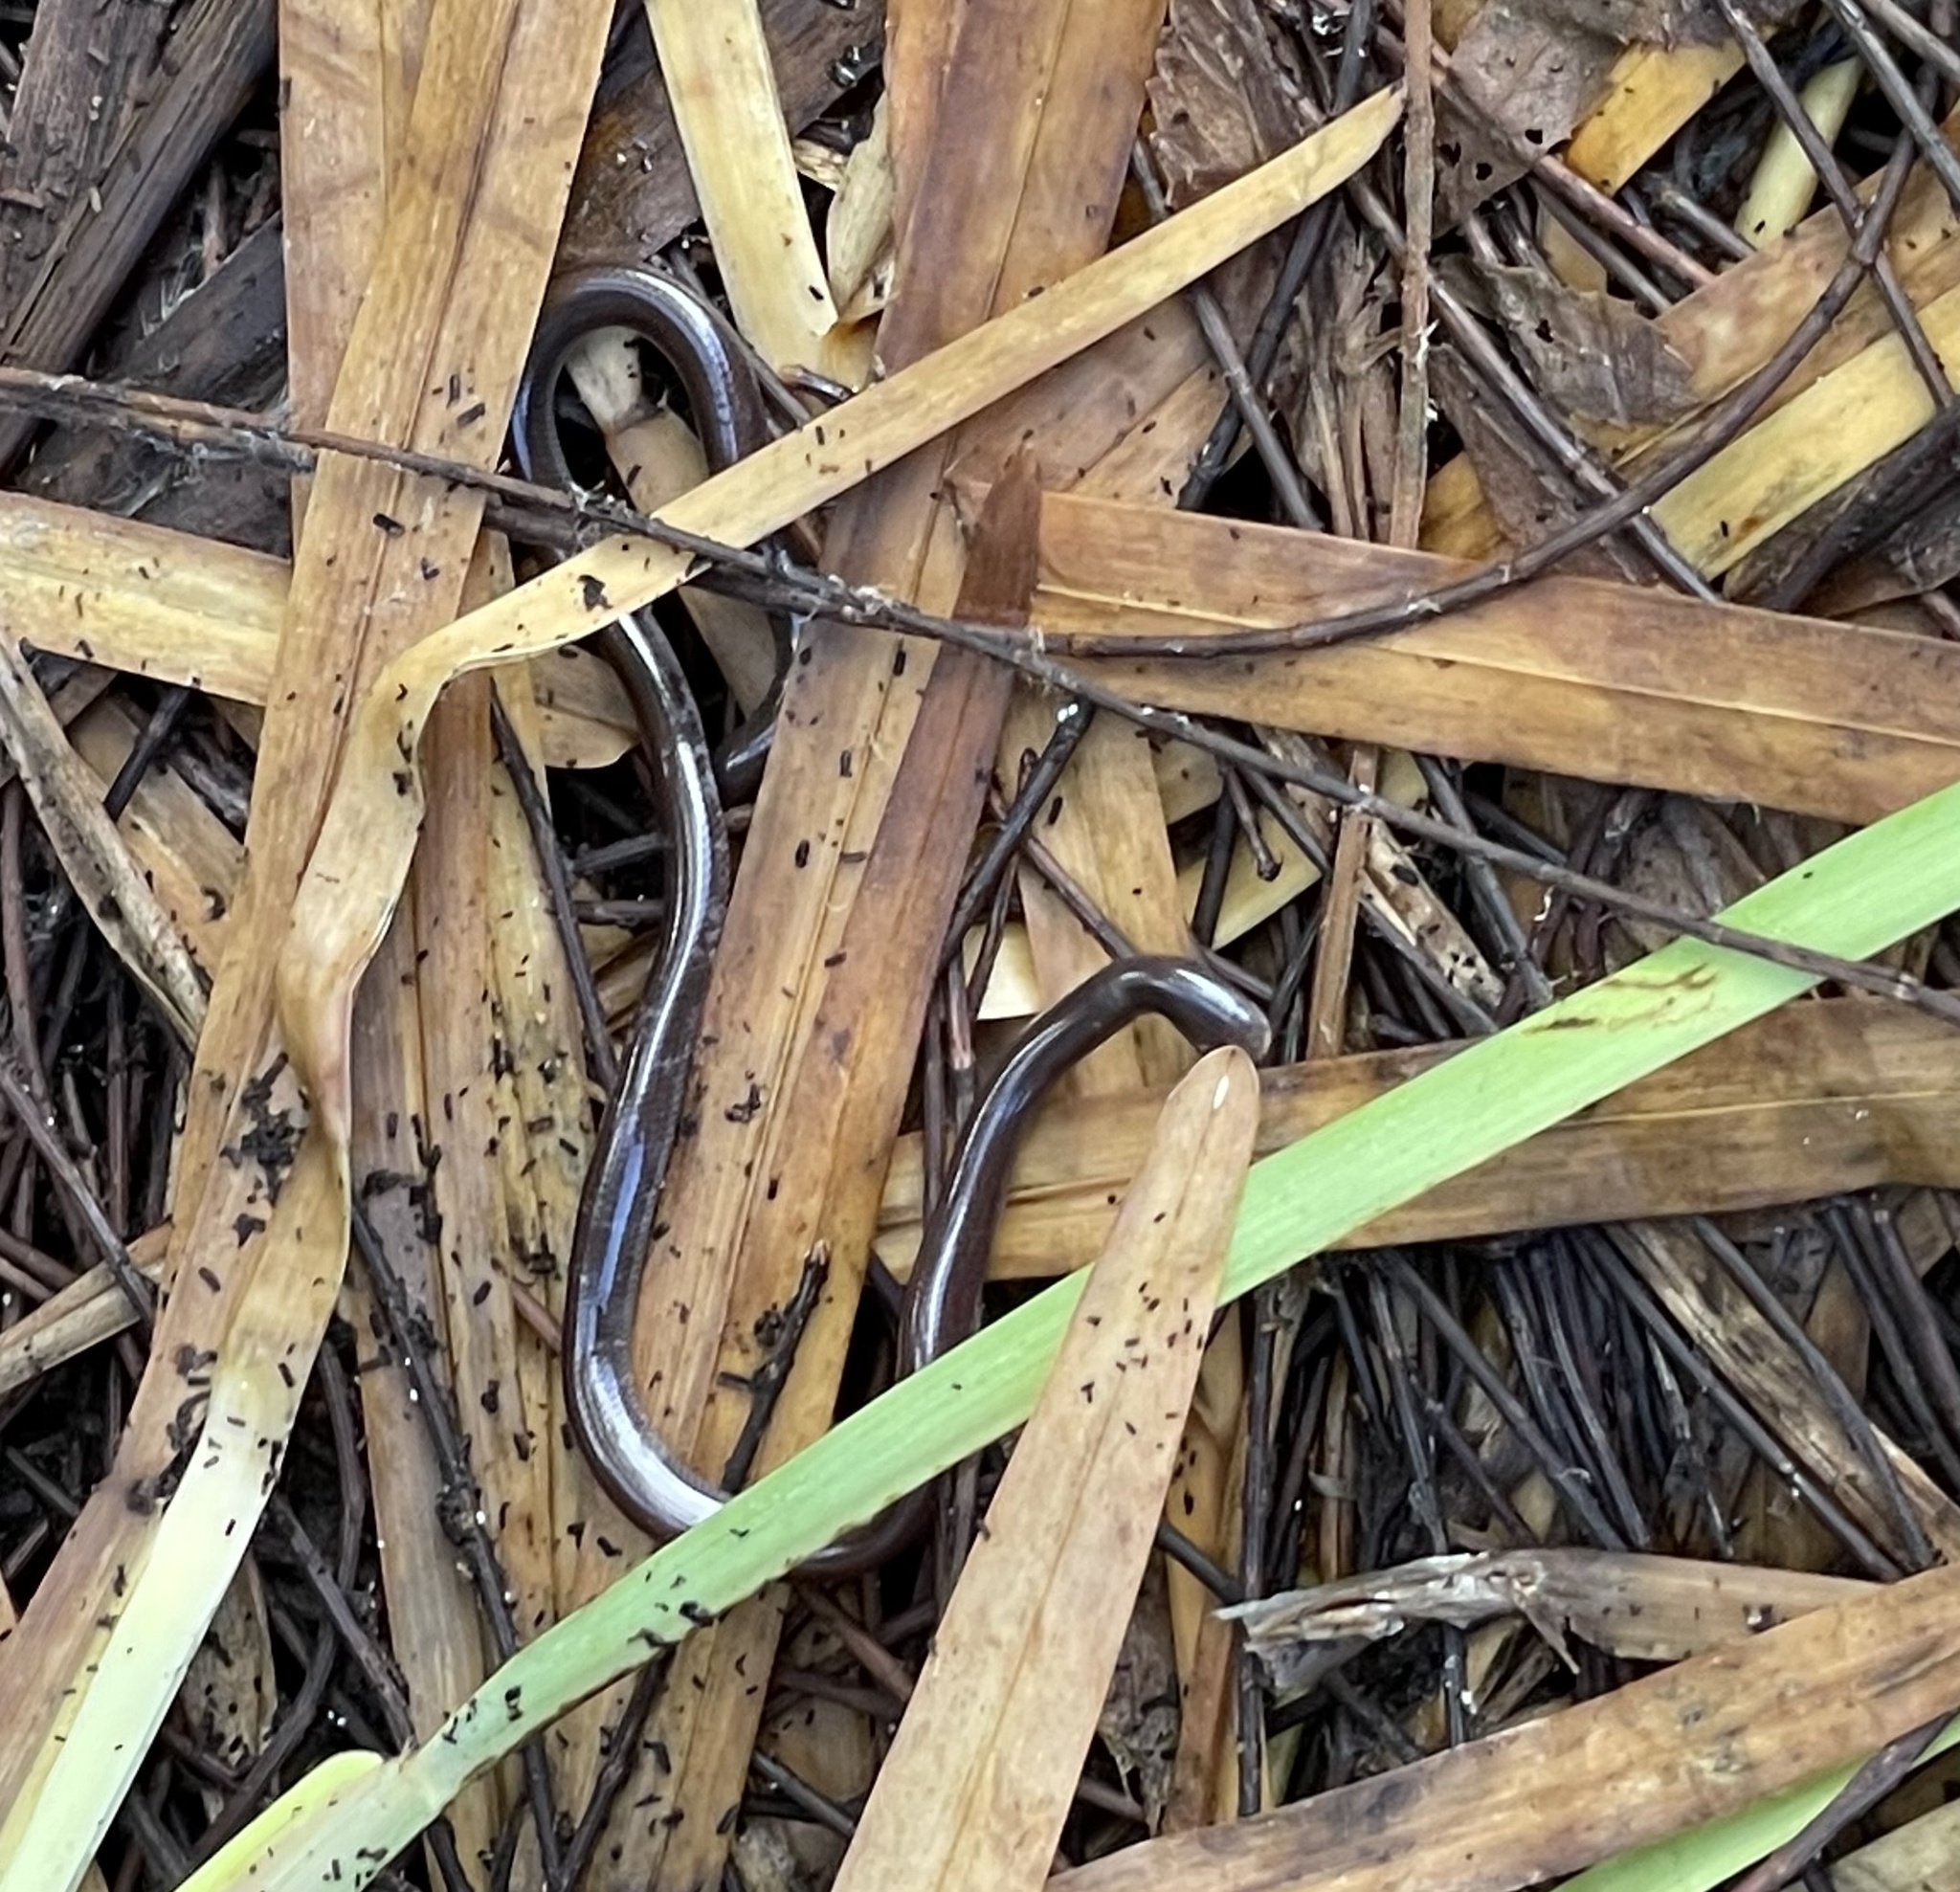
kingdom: Animalia
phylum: Chordata
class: Squamata
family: Typhlopidae
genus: Indotyphlops
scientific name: Indotyphlops braminus
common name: Brahminy blindsnake
